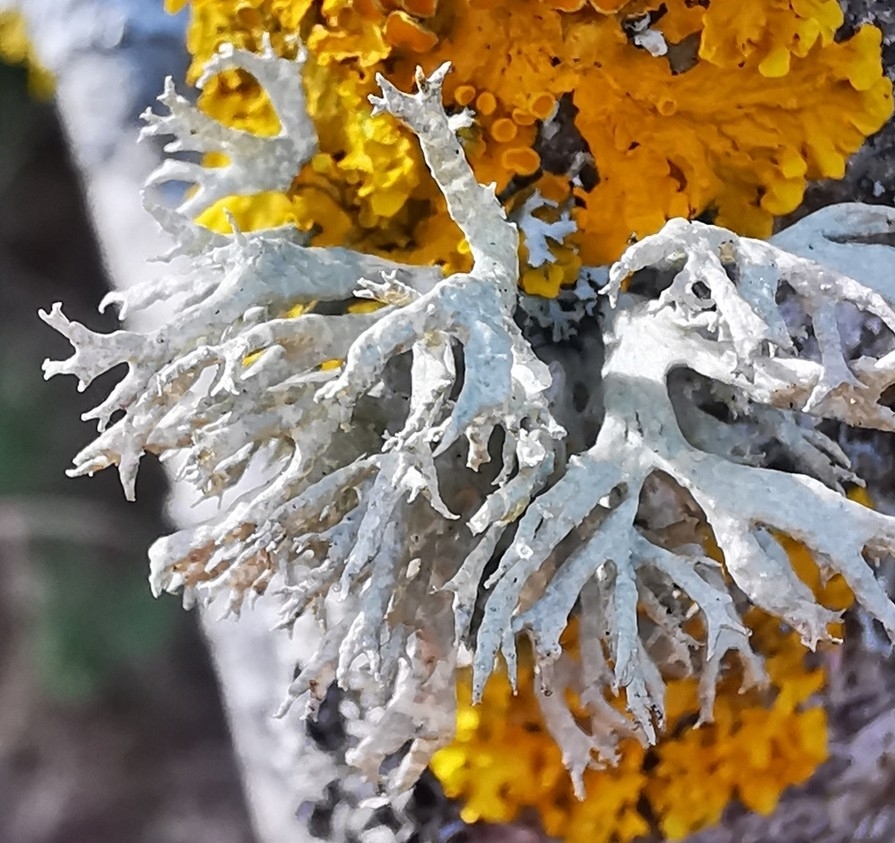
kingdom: Fungi
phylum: Ascomycota
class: Lecanoromycetes
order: Lecanorales
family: Parmeliaceae
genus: Evernia
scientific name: Evernia prunastri
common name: Oak moss
